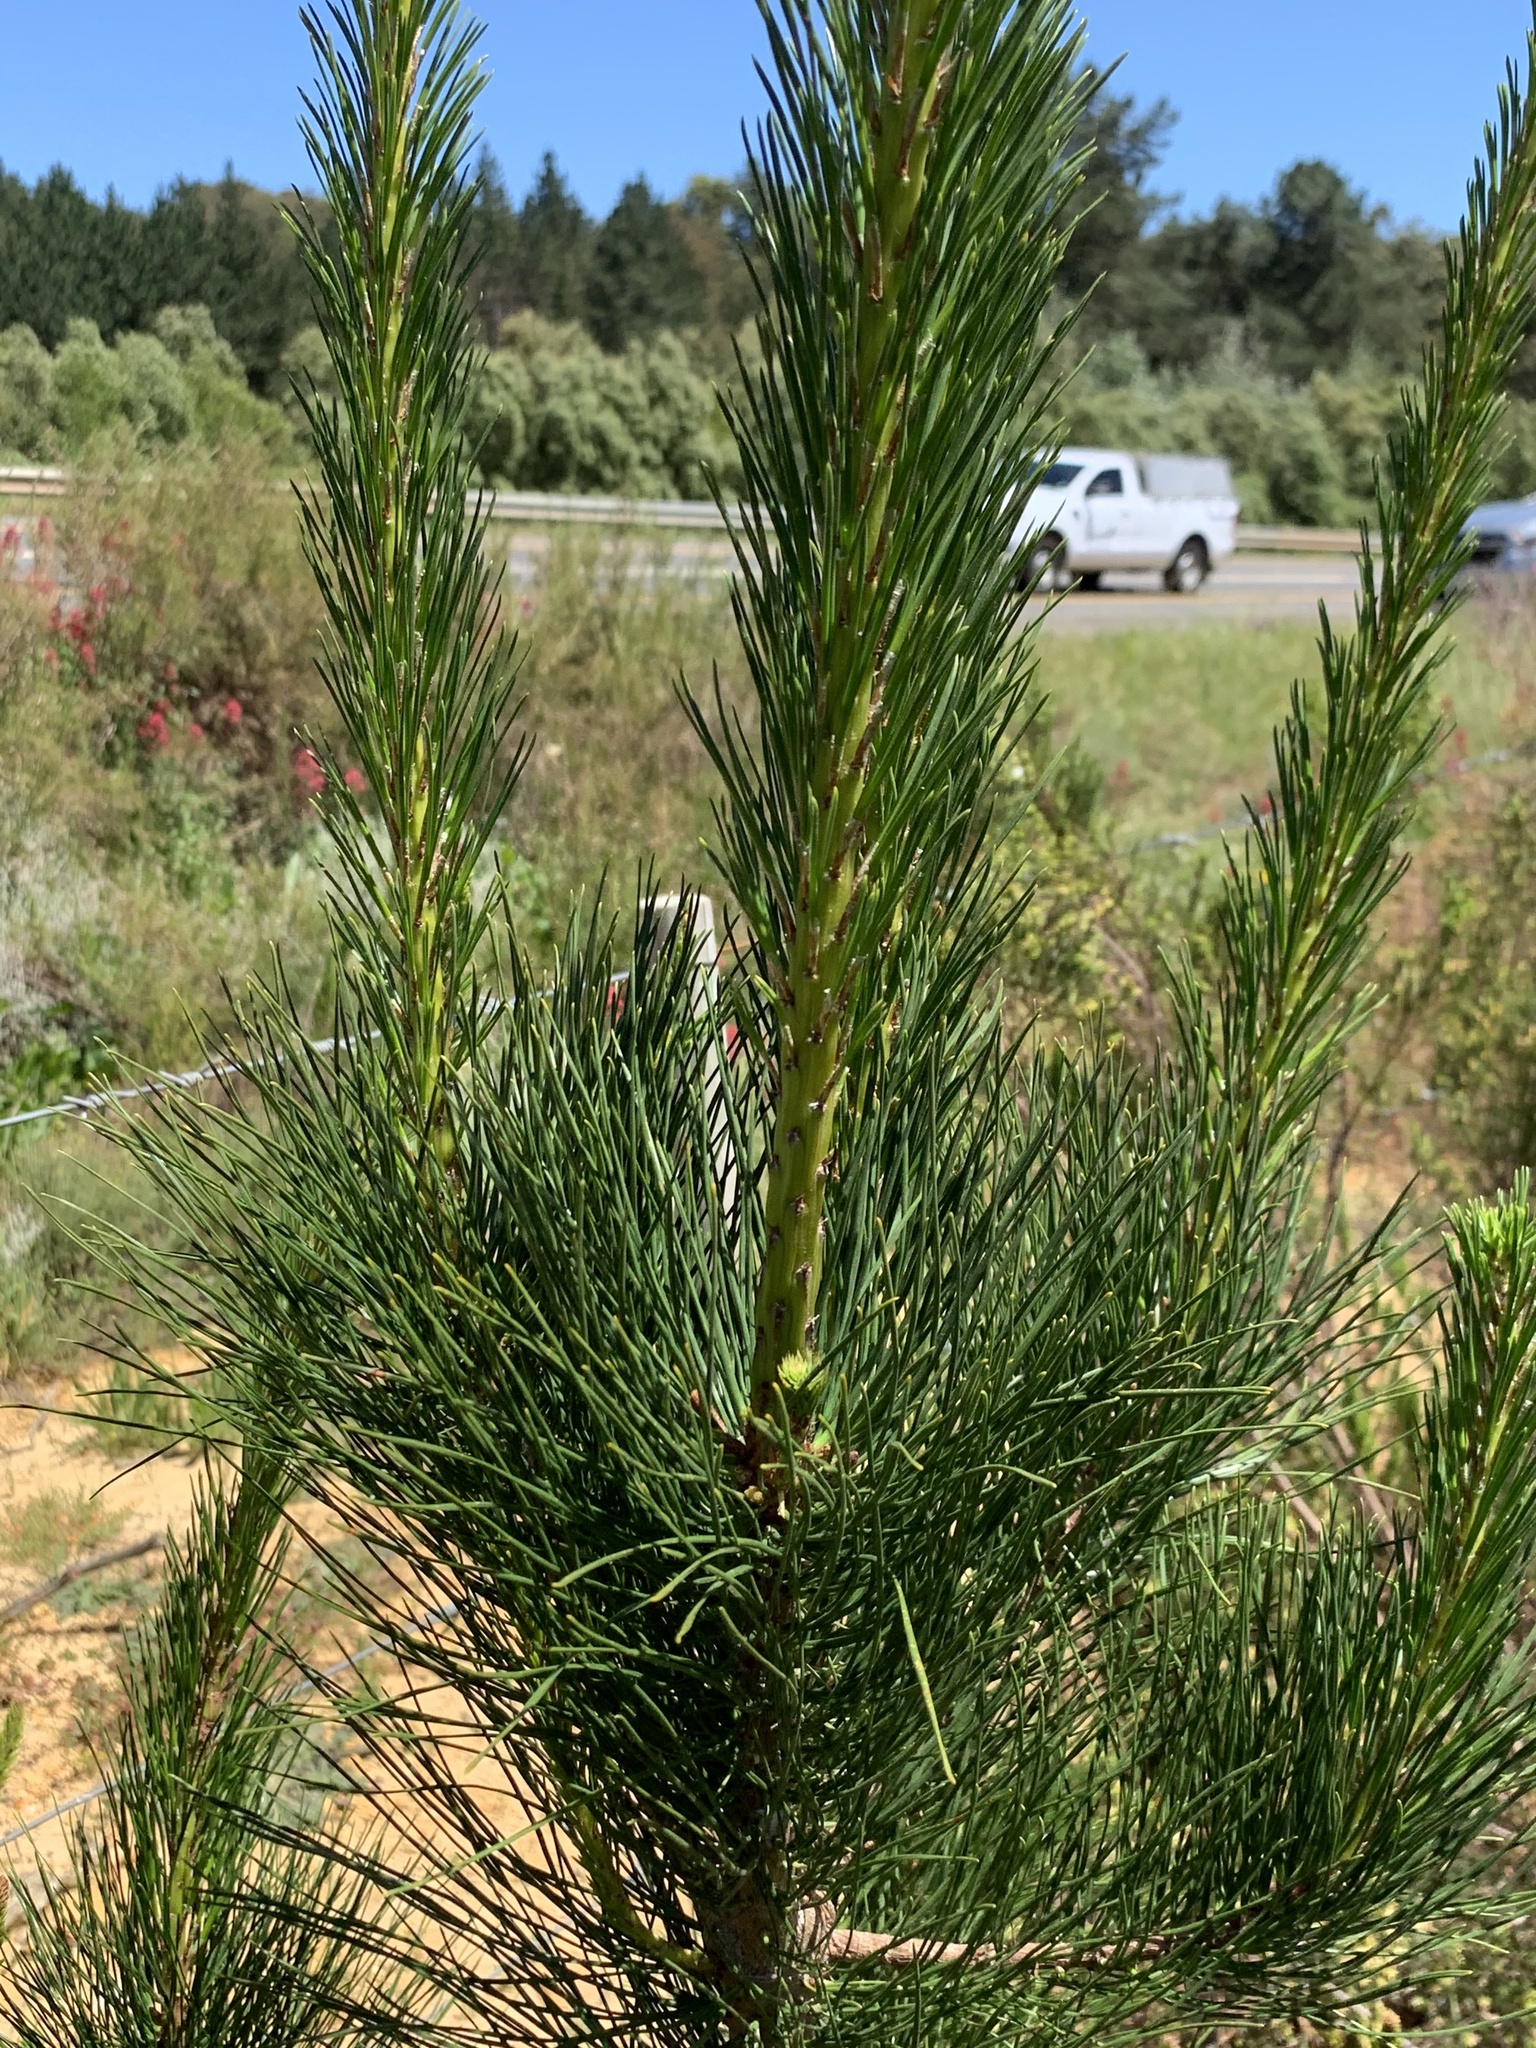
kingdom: Plantae
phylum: Tracheophyta
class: Pinopsida
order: Pinales
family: Pinaceae
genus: Pinus
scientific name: Pinus radiata
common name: Monterey pine
